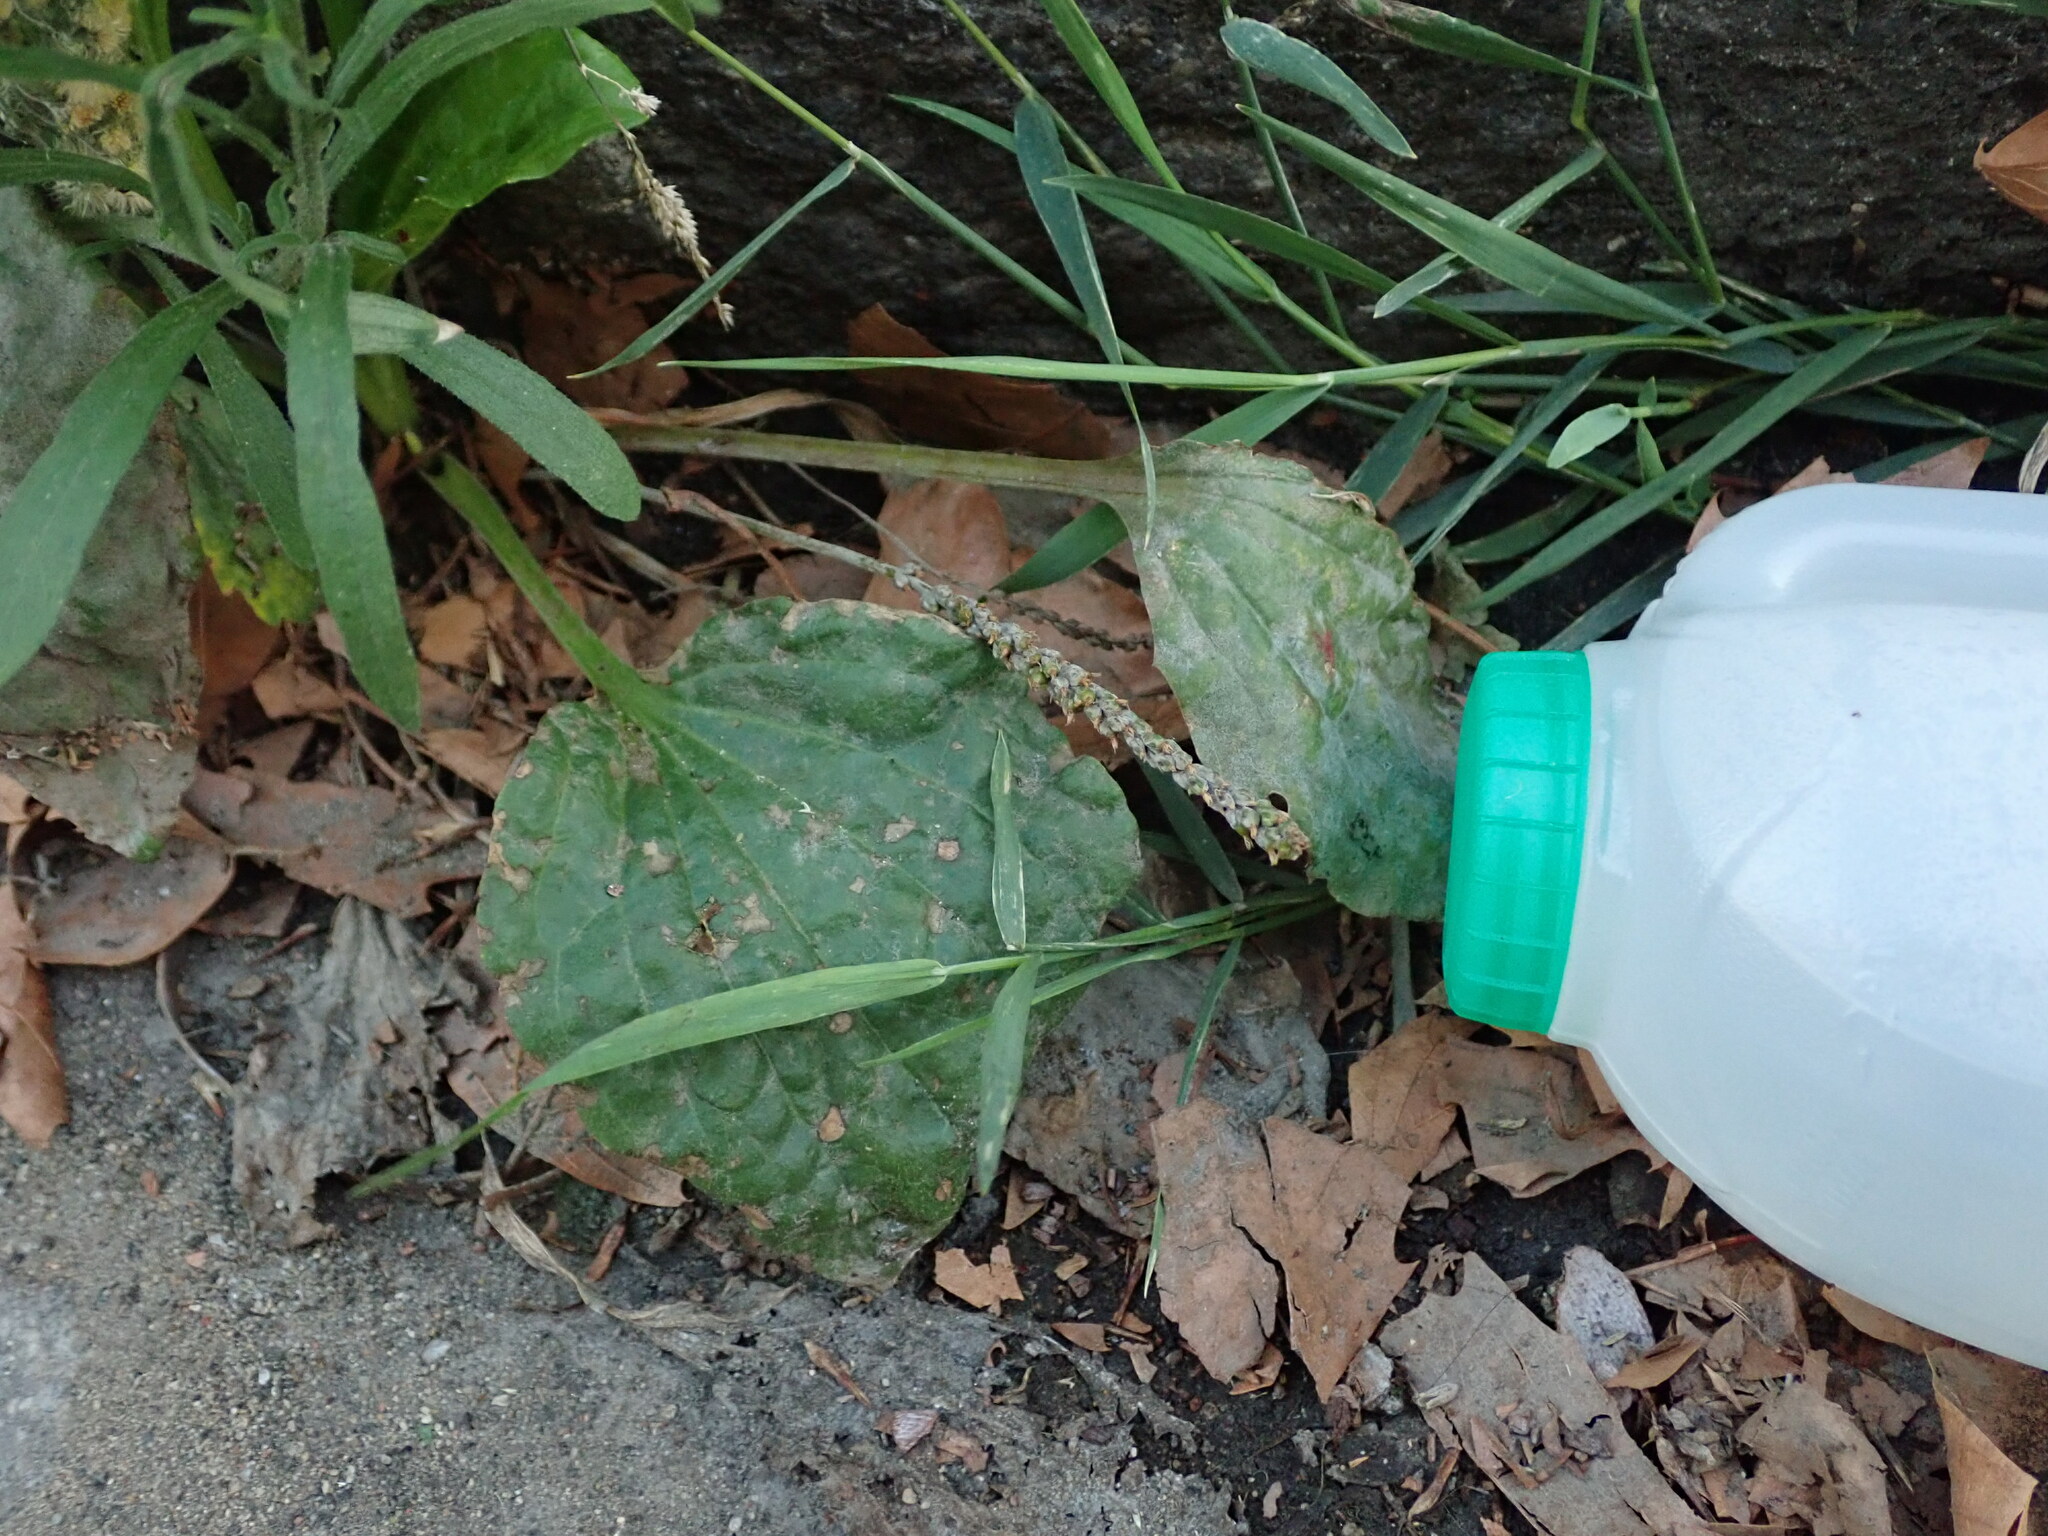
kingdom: Plantae
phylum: Tracheophyta
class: Magnoliopsida
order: Lamiales
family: Plantaginaceae
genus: Plantago
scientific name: Plantago major
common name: Common plantain
